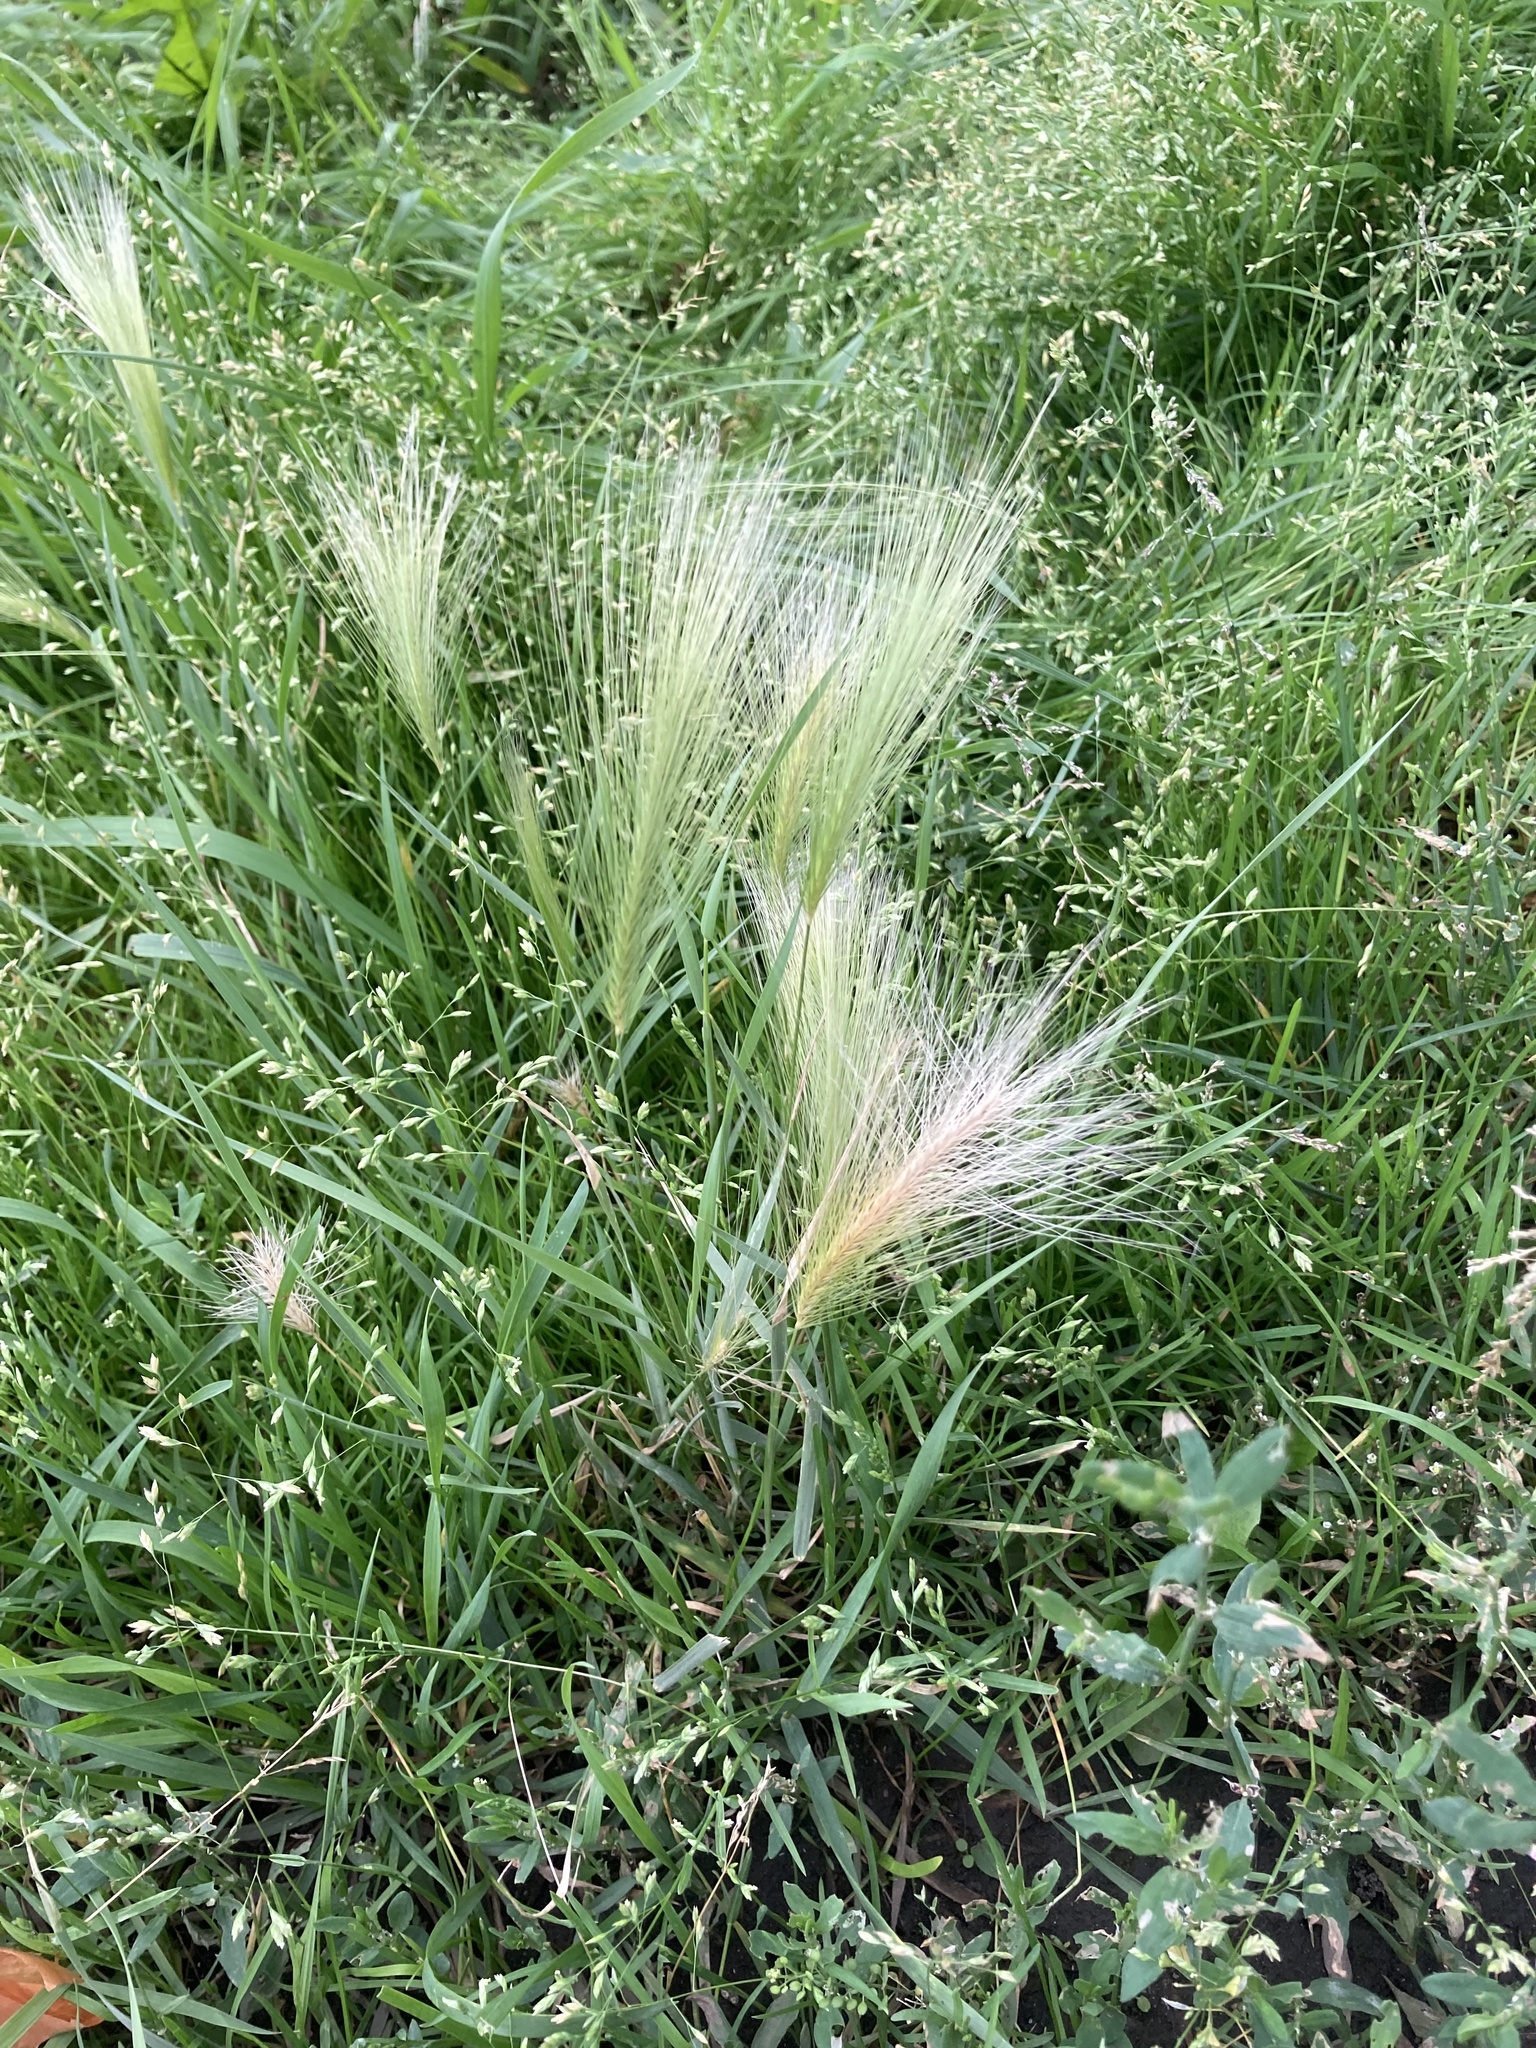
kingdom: Plantae
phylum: Tracheophyta
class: Liliopsida
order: Poales
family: Poaceae
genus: Hordeum
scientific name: Hordeum jubatum
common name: Foxtail barley
